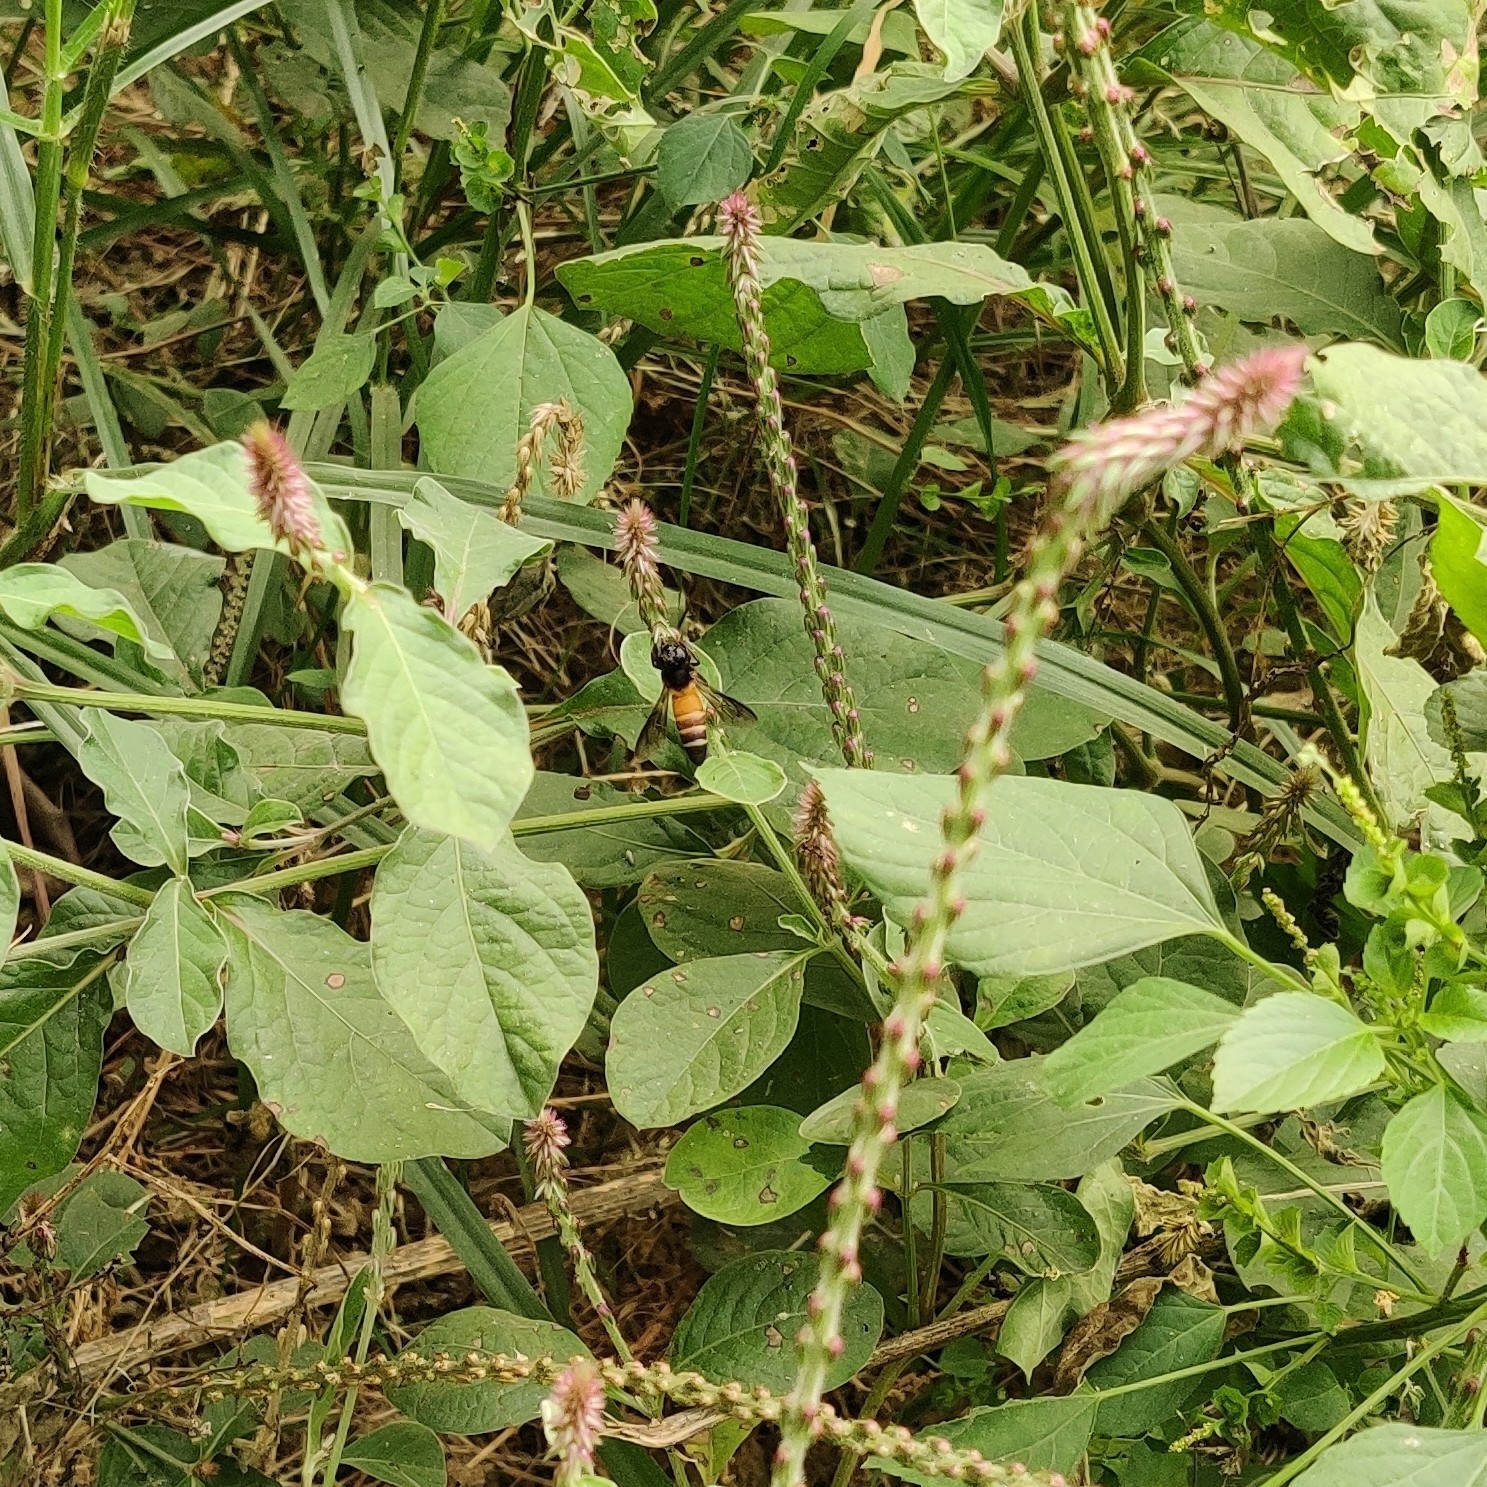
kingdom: Animalia
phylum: Arthropoda
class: Insecta
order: Hymenoptera
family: Apidae
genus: Apis
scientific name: Apis dorsata
